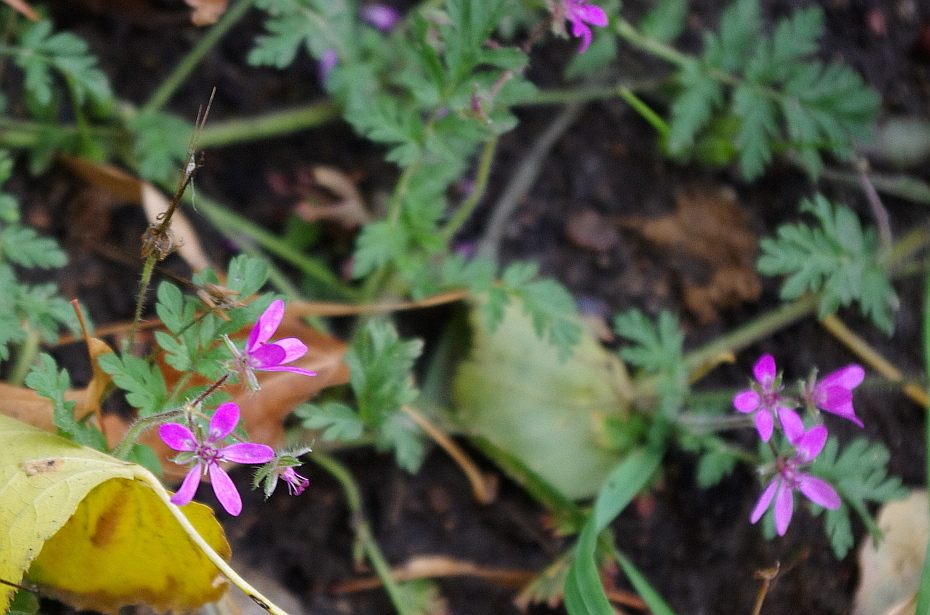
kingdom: Plantae
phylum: Tracheophyta
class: Magnoliopsida
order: Geraniales
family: Geraniaceae
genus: Erodium
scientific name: Erodium cicutarium
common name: Common stork's-bill
